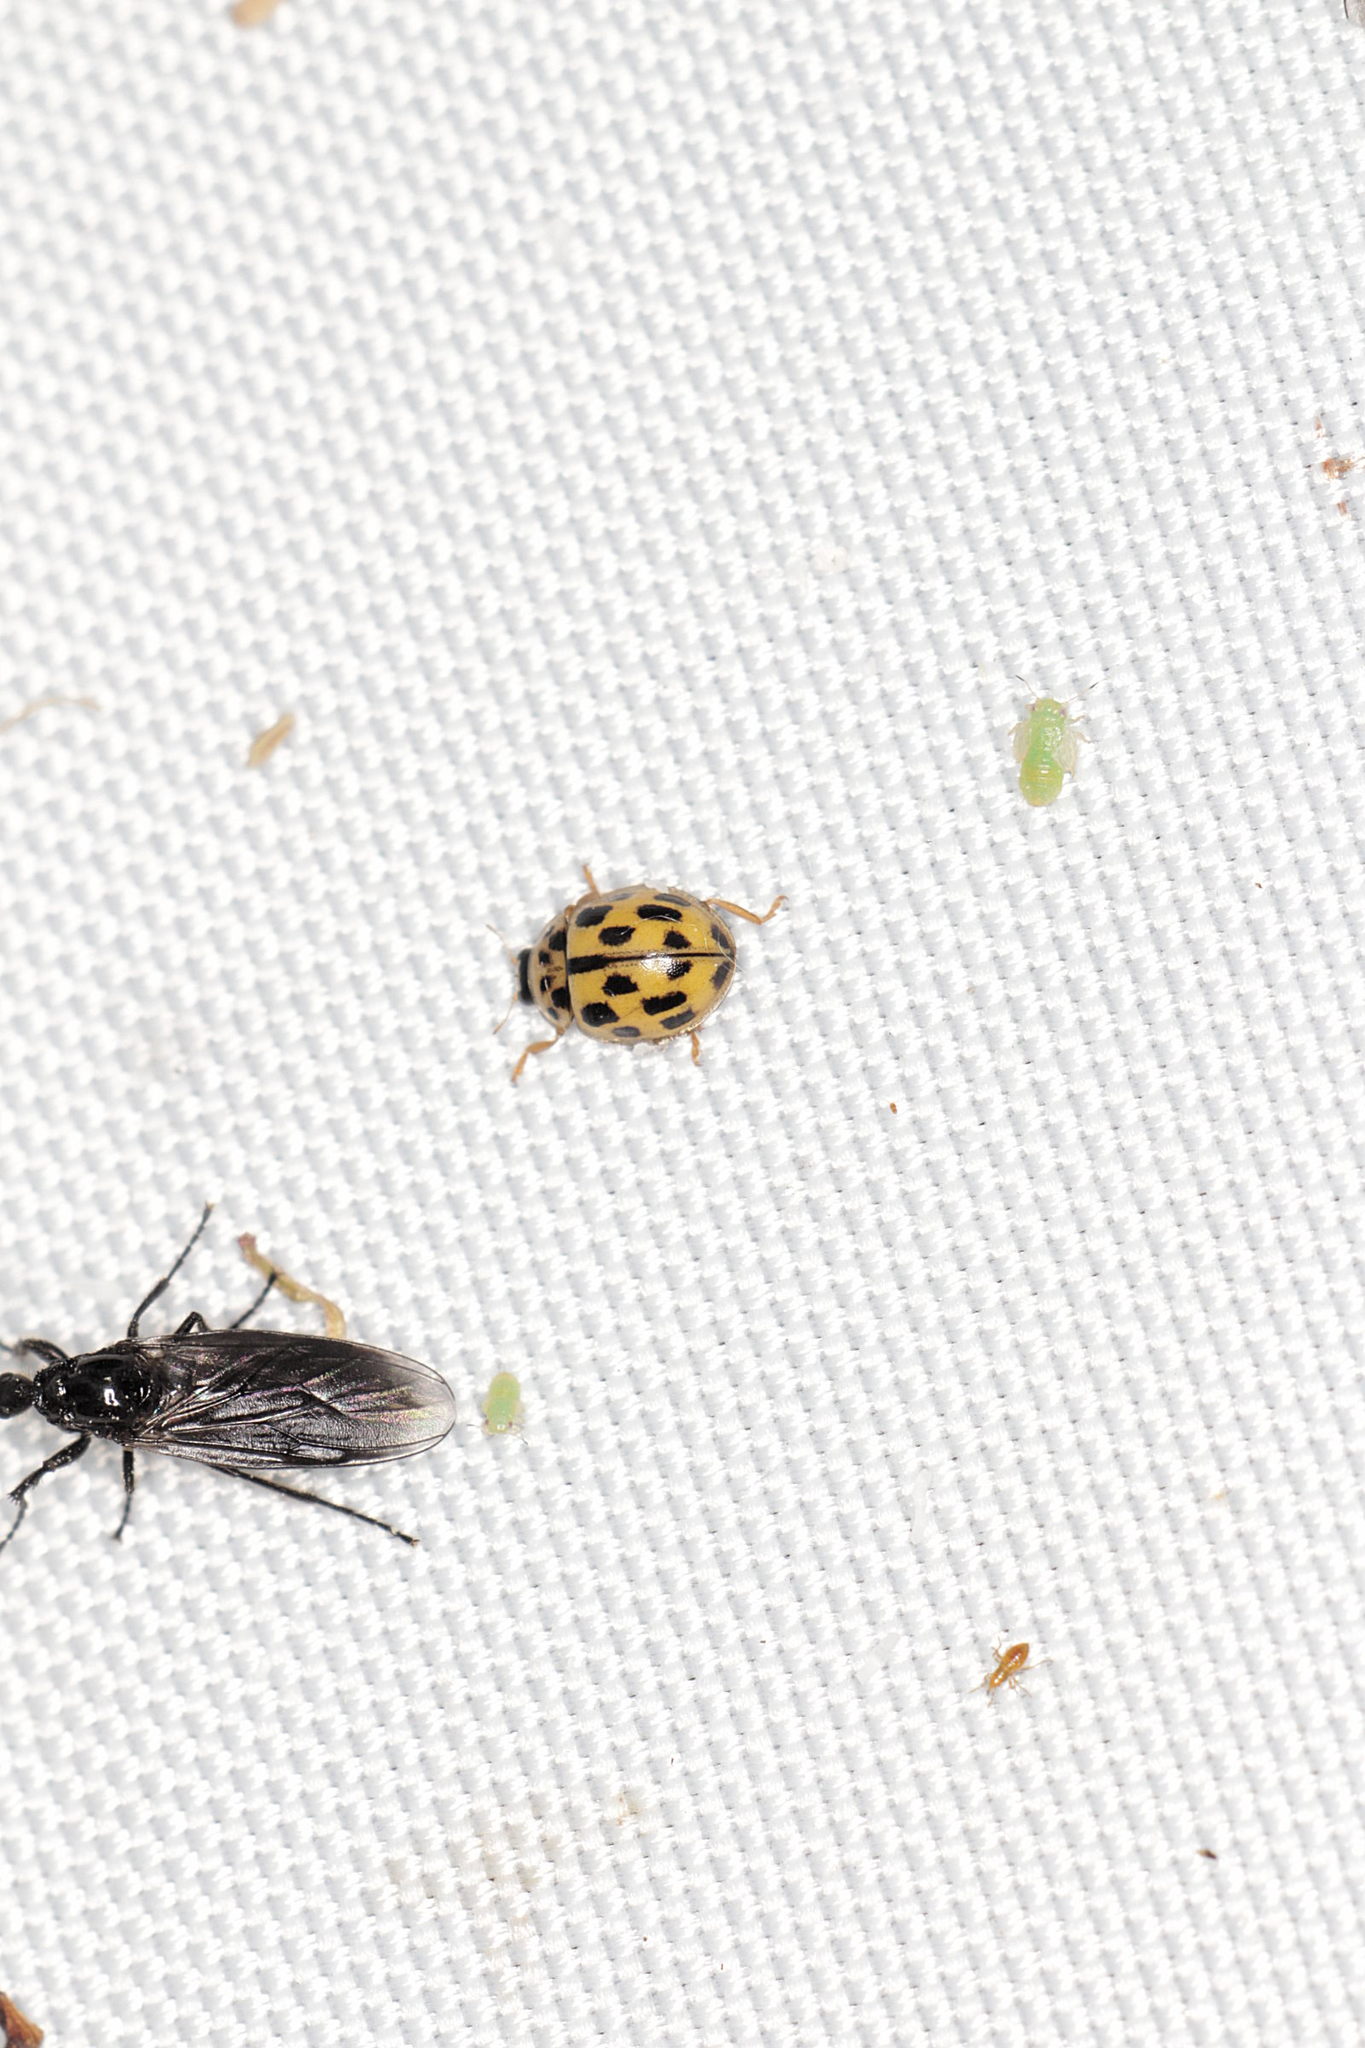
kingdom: Animalia
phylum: Arthropoda
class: Insecta
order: Coleoptera
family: Coccinellidae
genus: Propylaea
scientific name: Propylaea quatuordecimpunctata
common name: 14-spotted ladybird beetle
